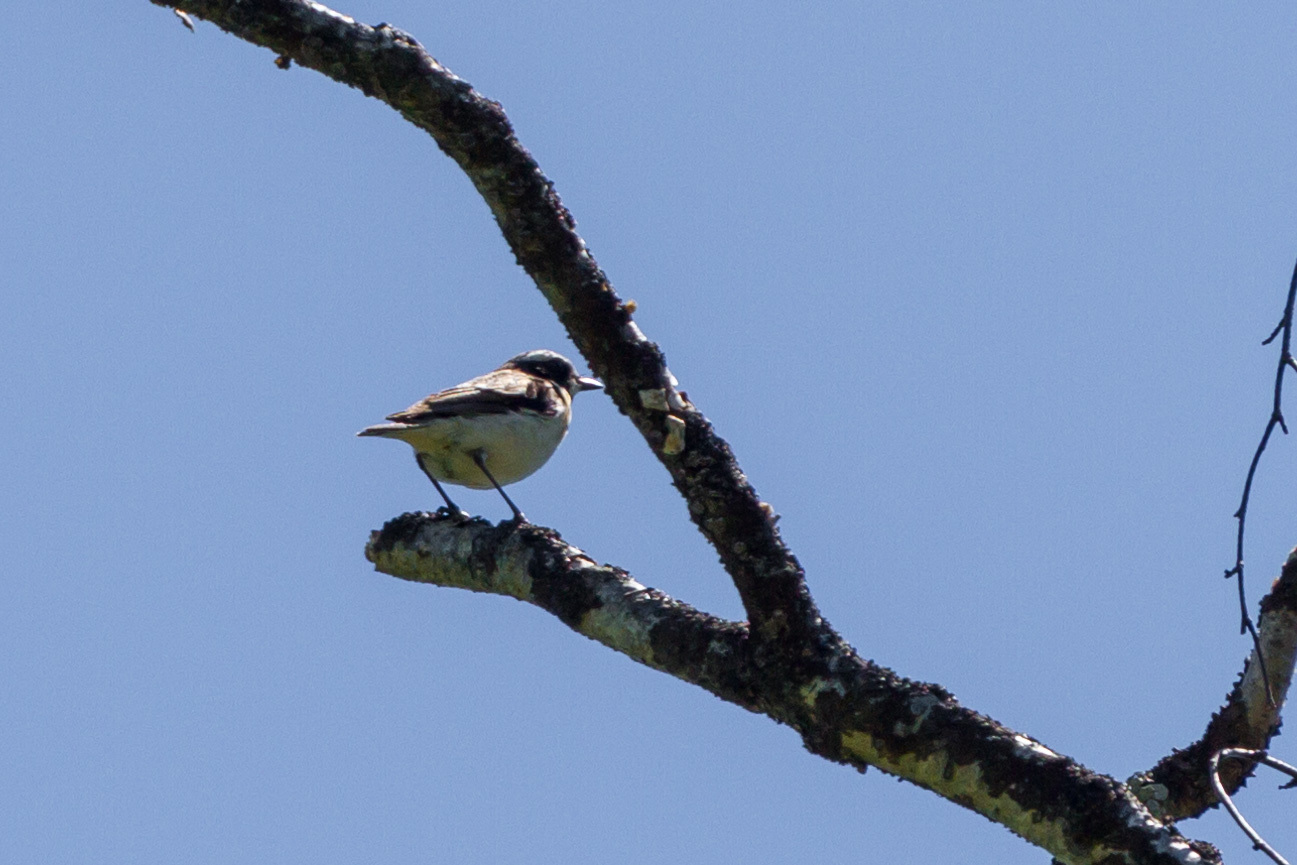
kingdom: Animalia
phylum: Chordata
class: Aves
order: Passeriformes
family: Muscicapidae
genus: Oenanthe
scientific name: Oenanthe oenanthe
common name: Northern wheatear
